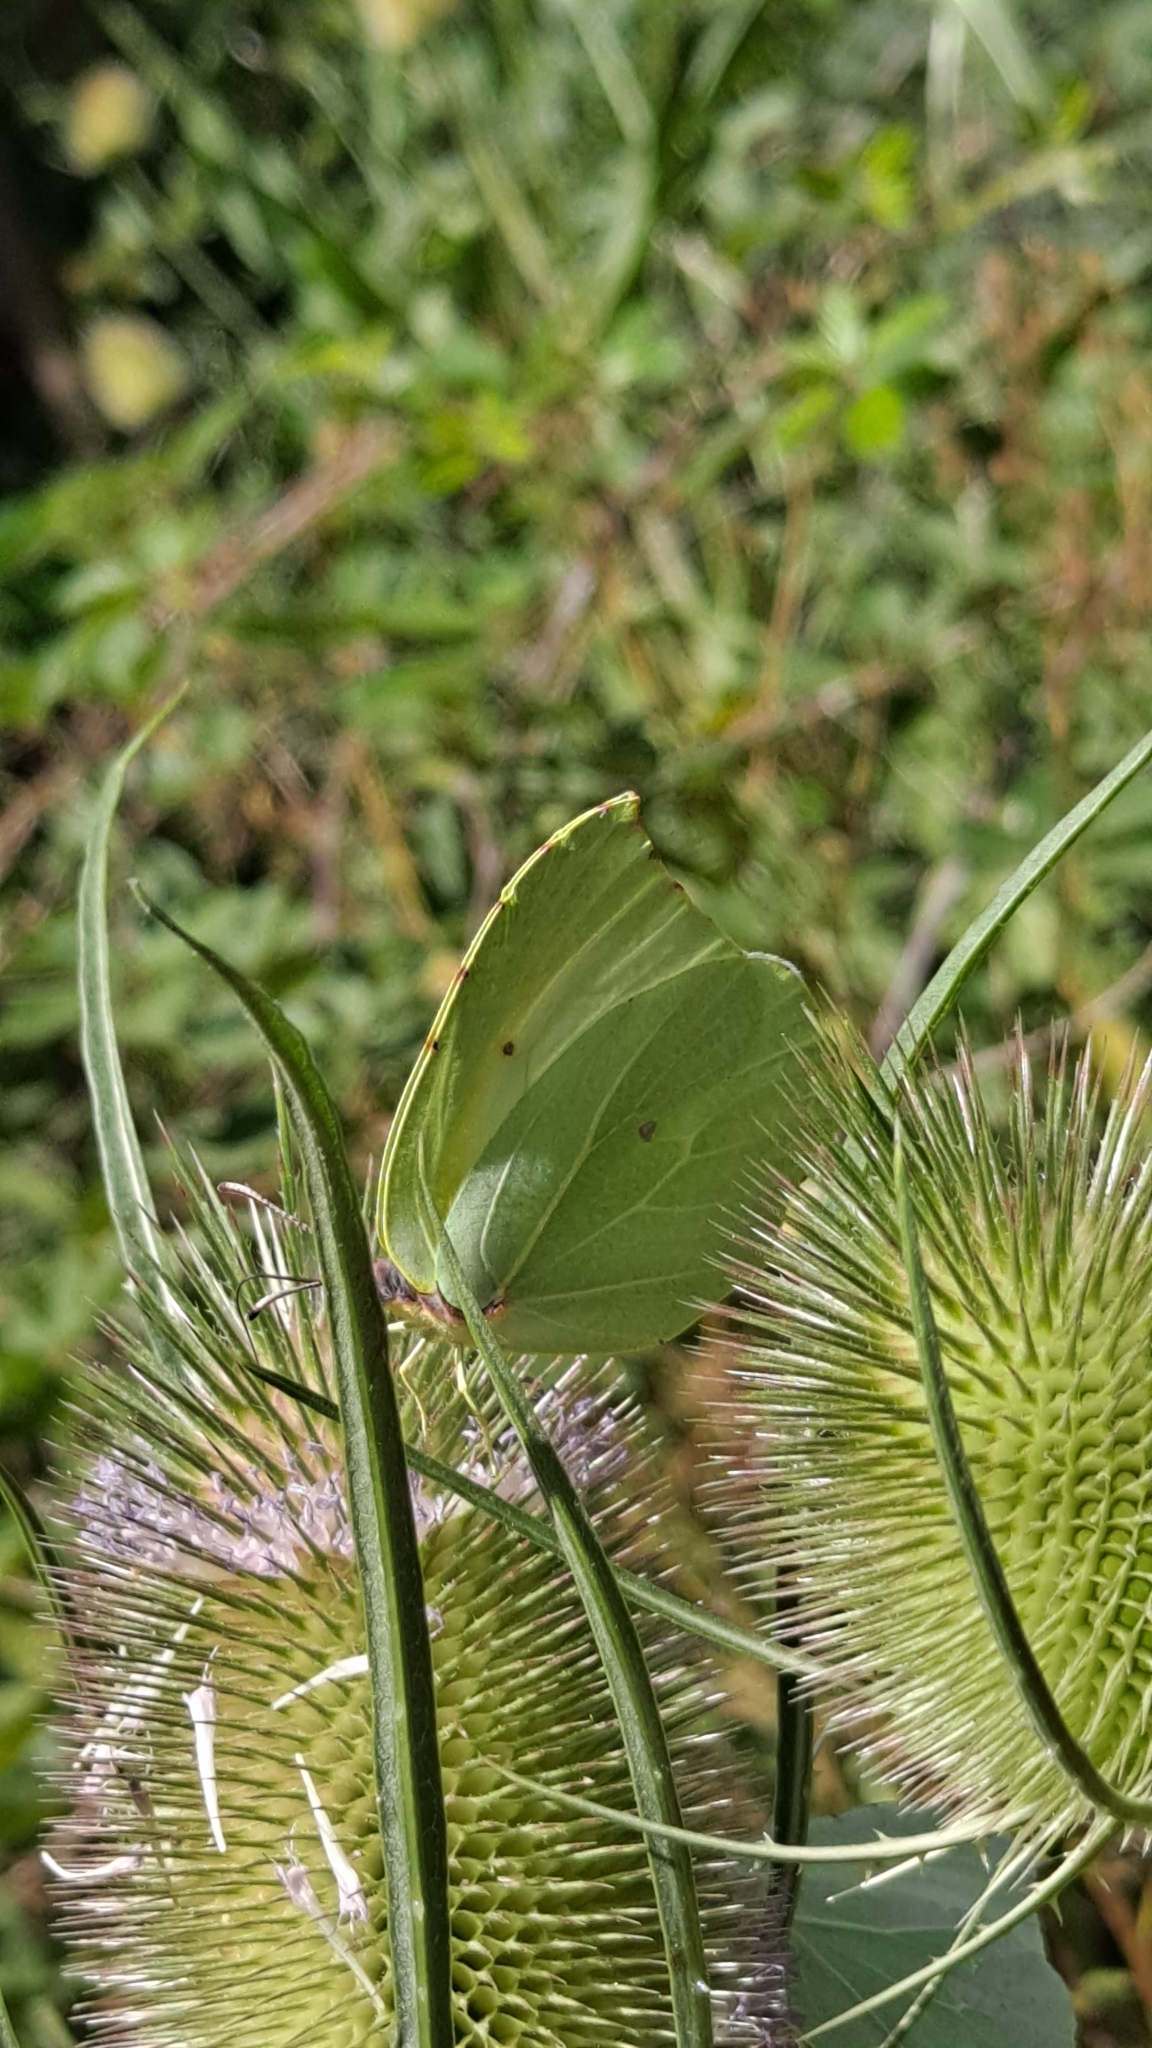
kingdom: Animalia
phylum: Arthropoda
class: Insecta
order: Lepidoptera
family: Pieridae
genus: Gonepteryx
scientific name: Gonepteryx rhamni
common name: Brimstone
